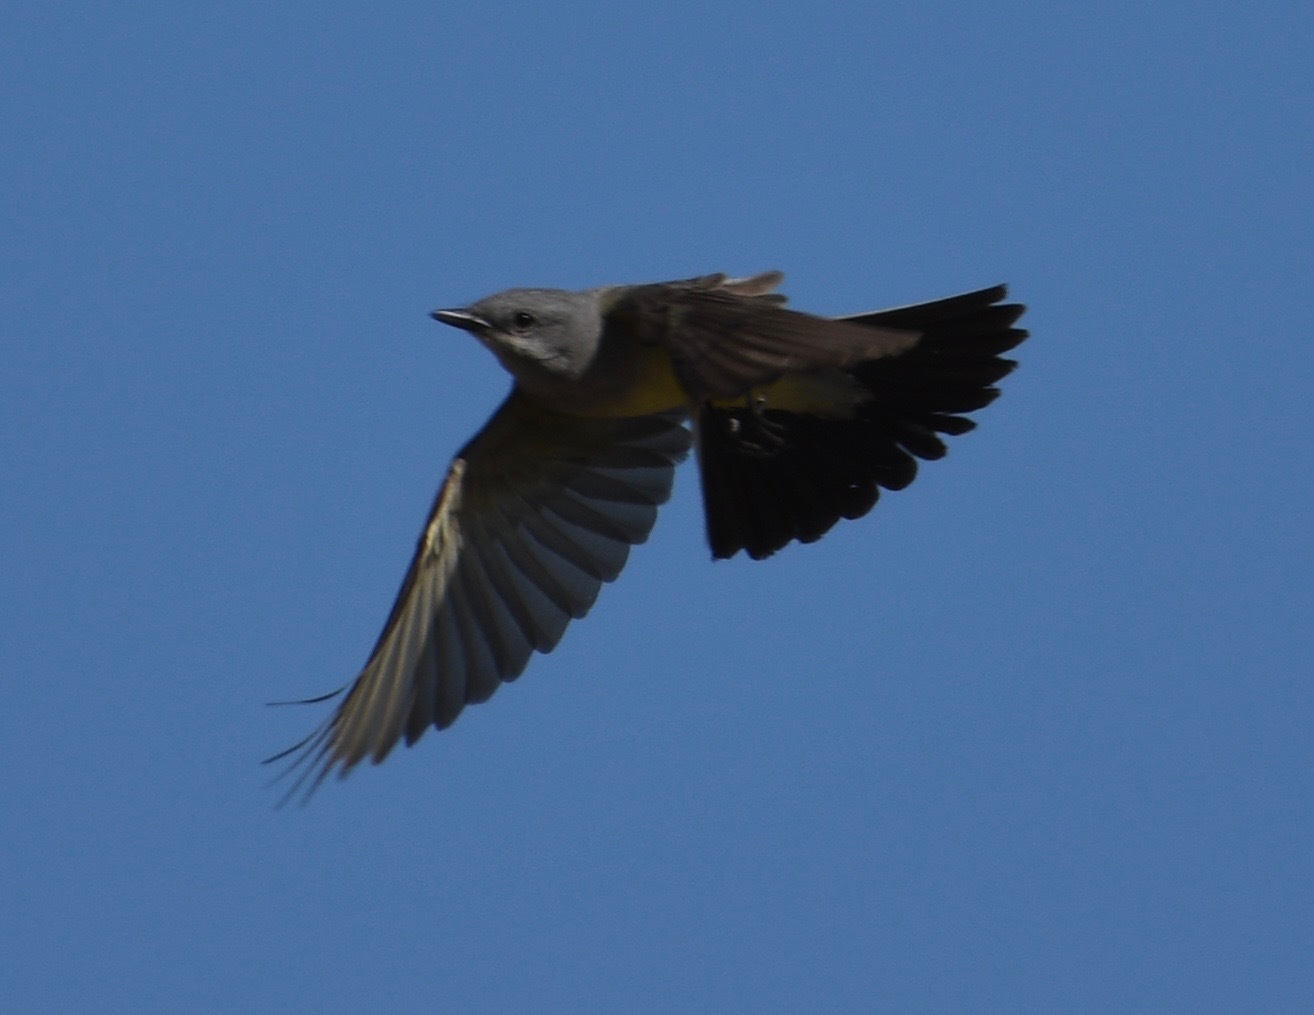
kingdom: Animalia
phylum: Chordata
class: Aves
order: Passeriformes
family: Tyrannidae
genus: Tyrannus
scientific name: Tyrannus verticalis
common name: Western kingbird
